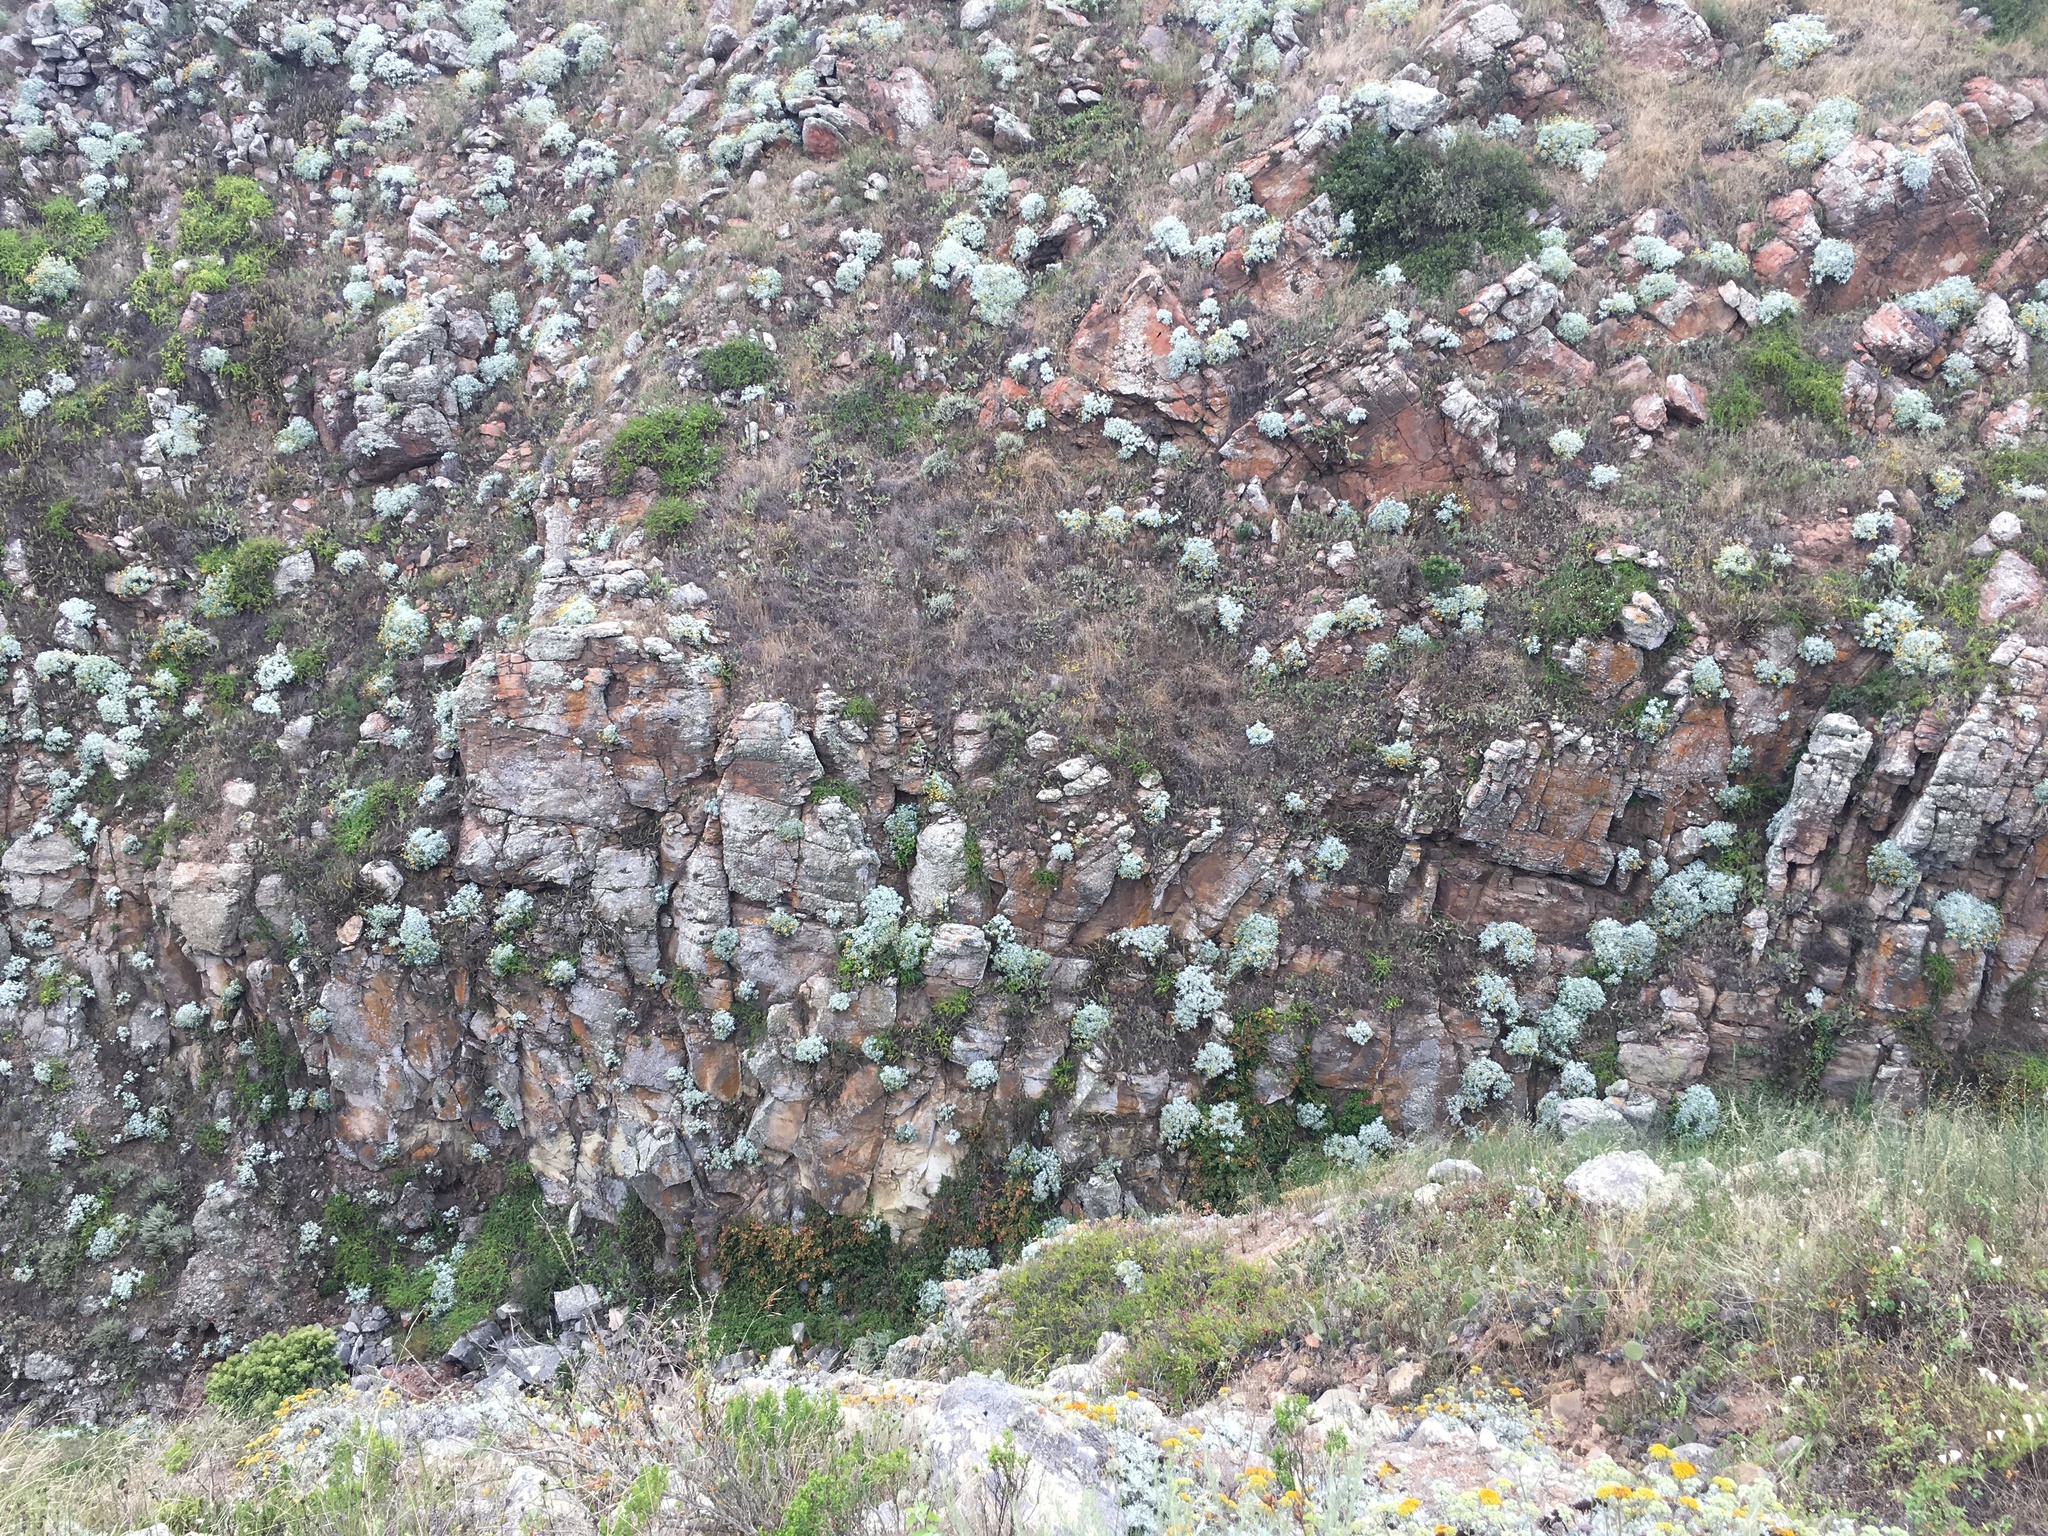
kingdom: Plantae
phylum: Tracheophyta
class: Magnoliopsida
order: Asterales
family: Asteraceae
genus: Constancea
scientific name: Constancea nevinii
